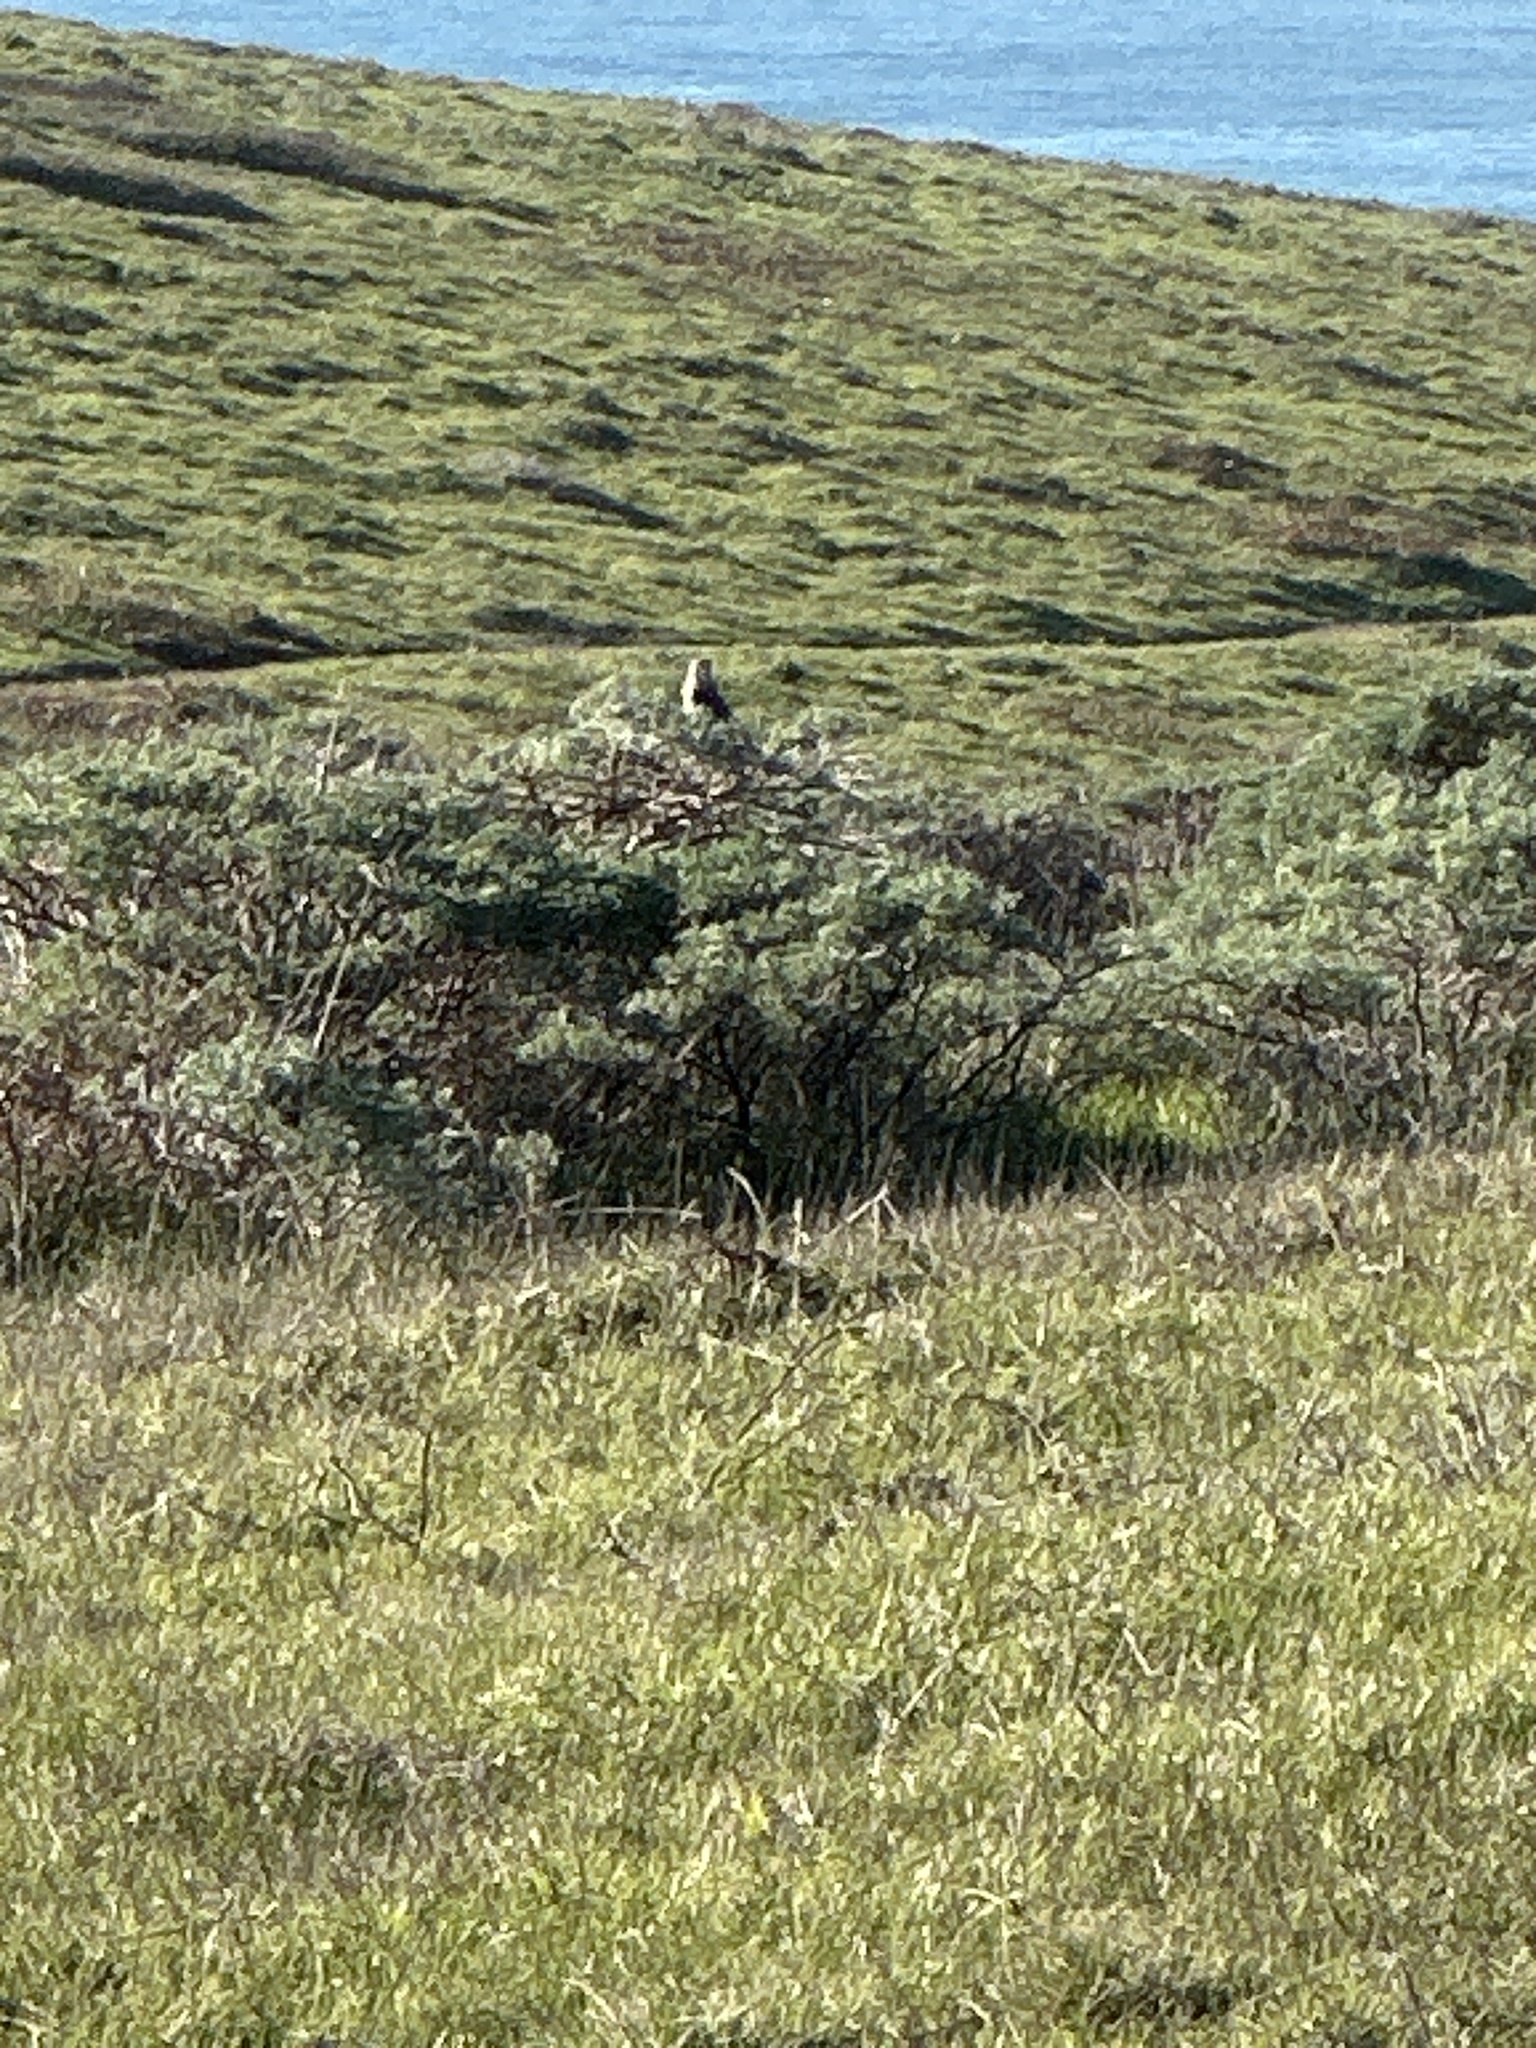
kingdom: Animalia
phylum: Chordata
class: Aves
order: Falconiformes
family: Falconidae
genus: Falco
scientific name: Falco sparverius
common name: American kestrel
